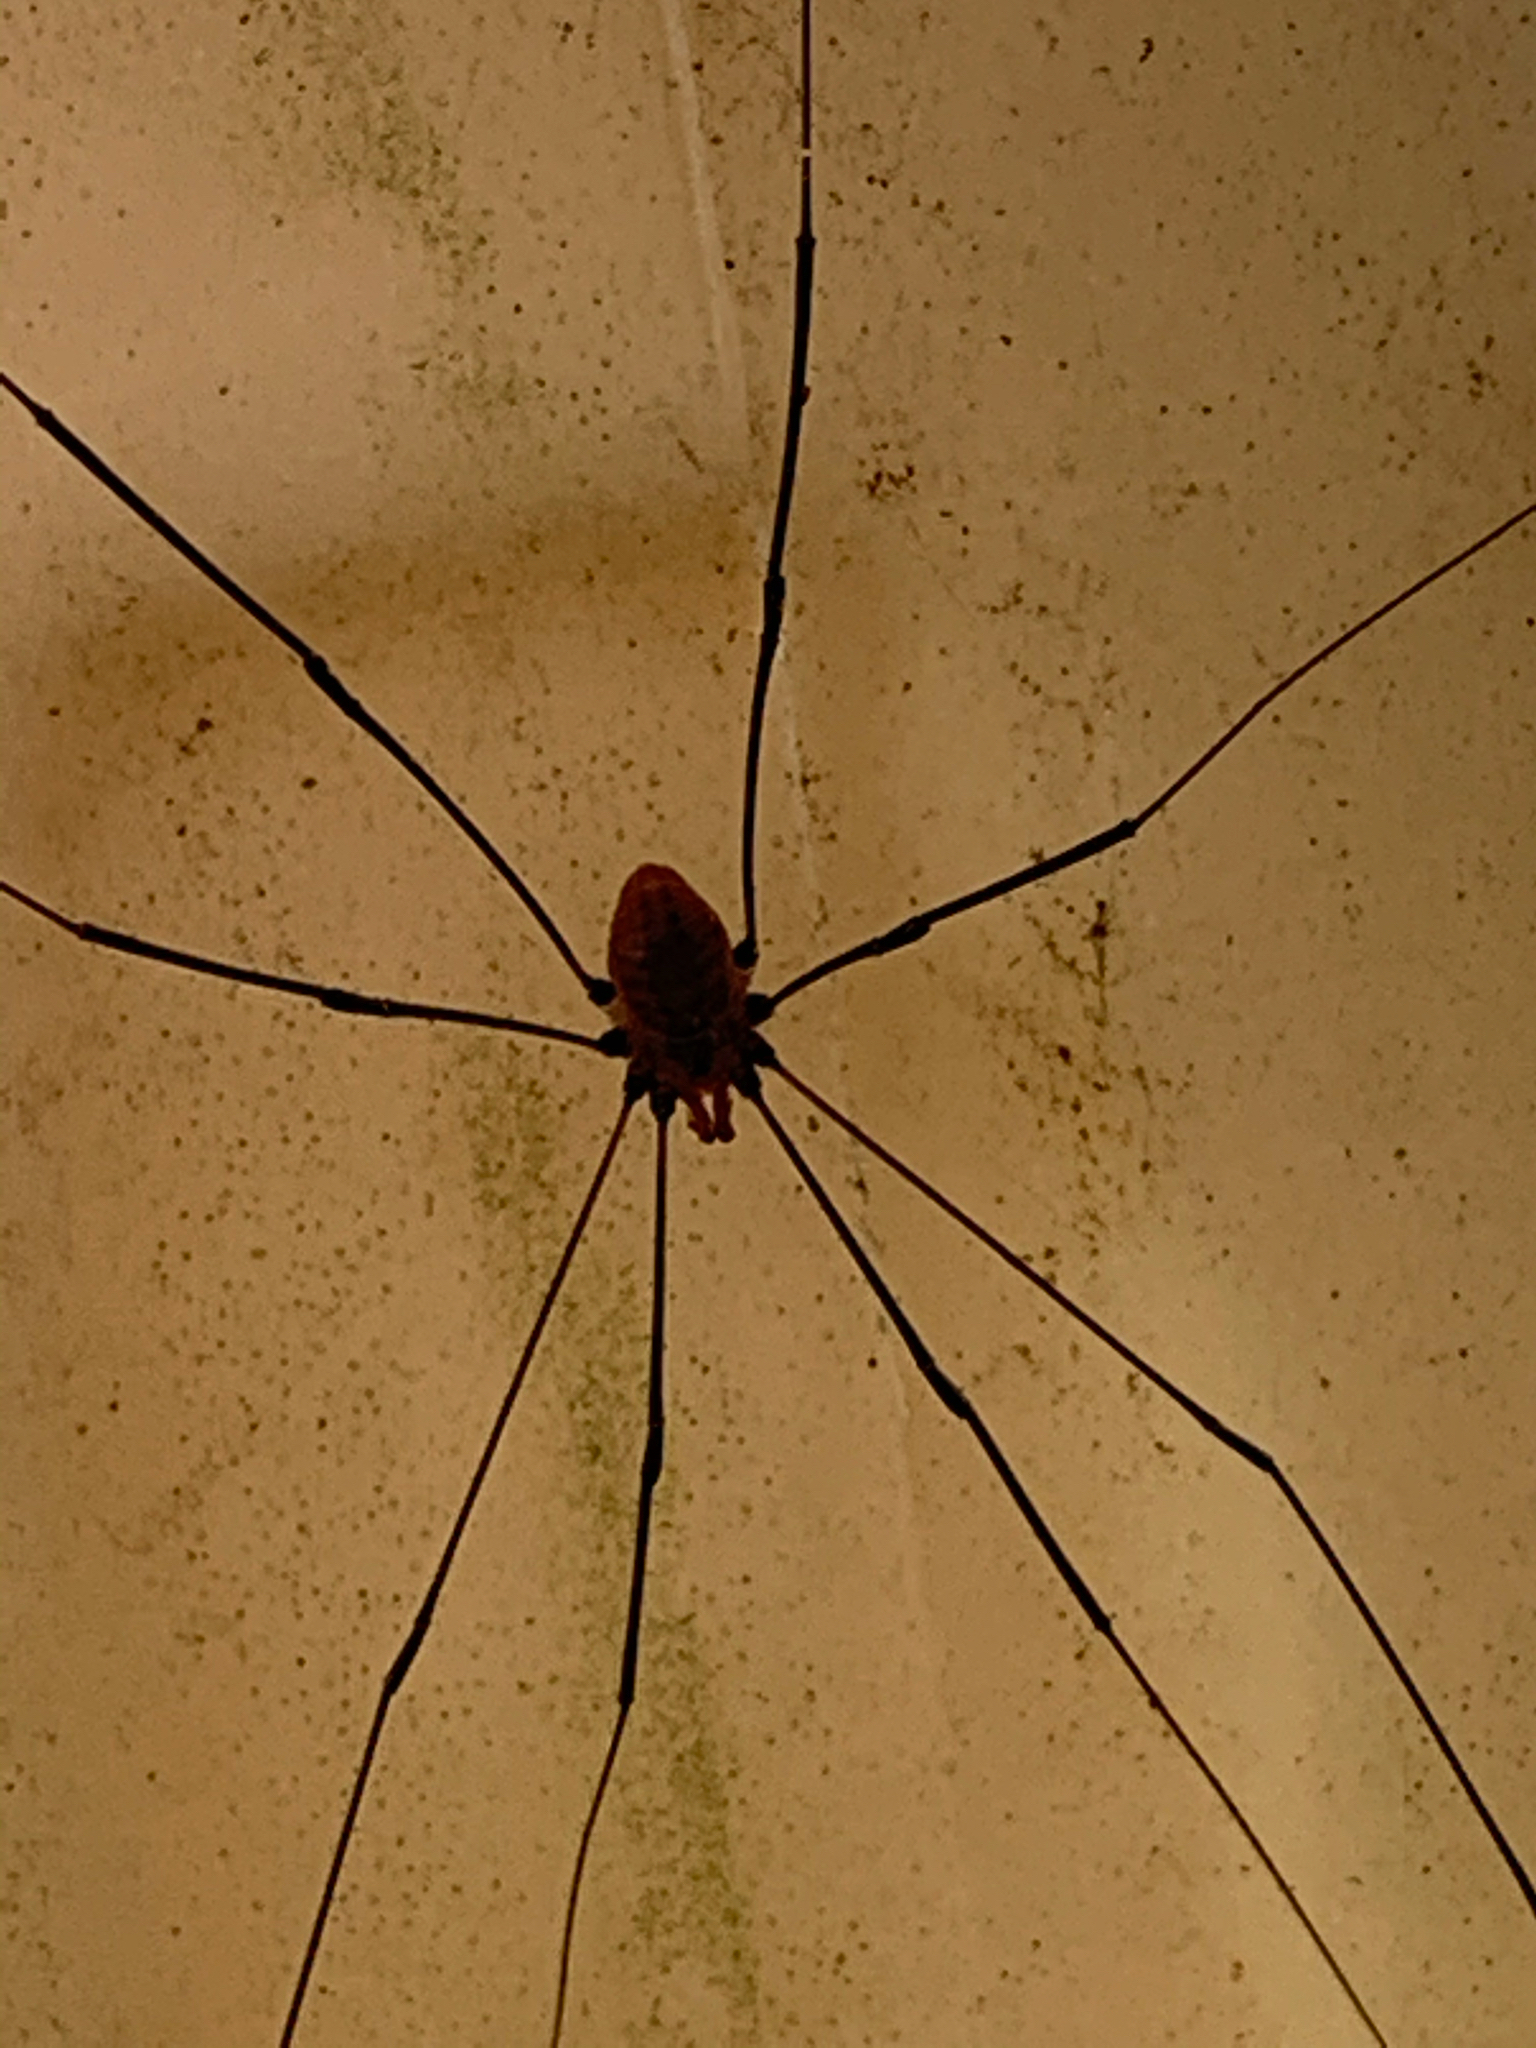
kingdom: Animalia
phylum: Arthropoda
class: Arachnida
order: Opiliones
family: Sclerosomatidae
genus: Leiobunum
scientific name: Leiobunum vittatum
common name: Eastern harvestman
